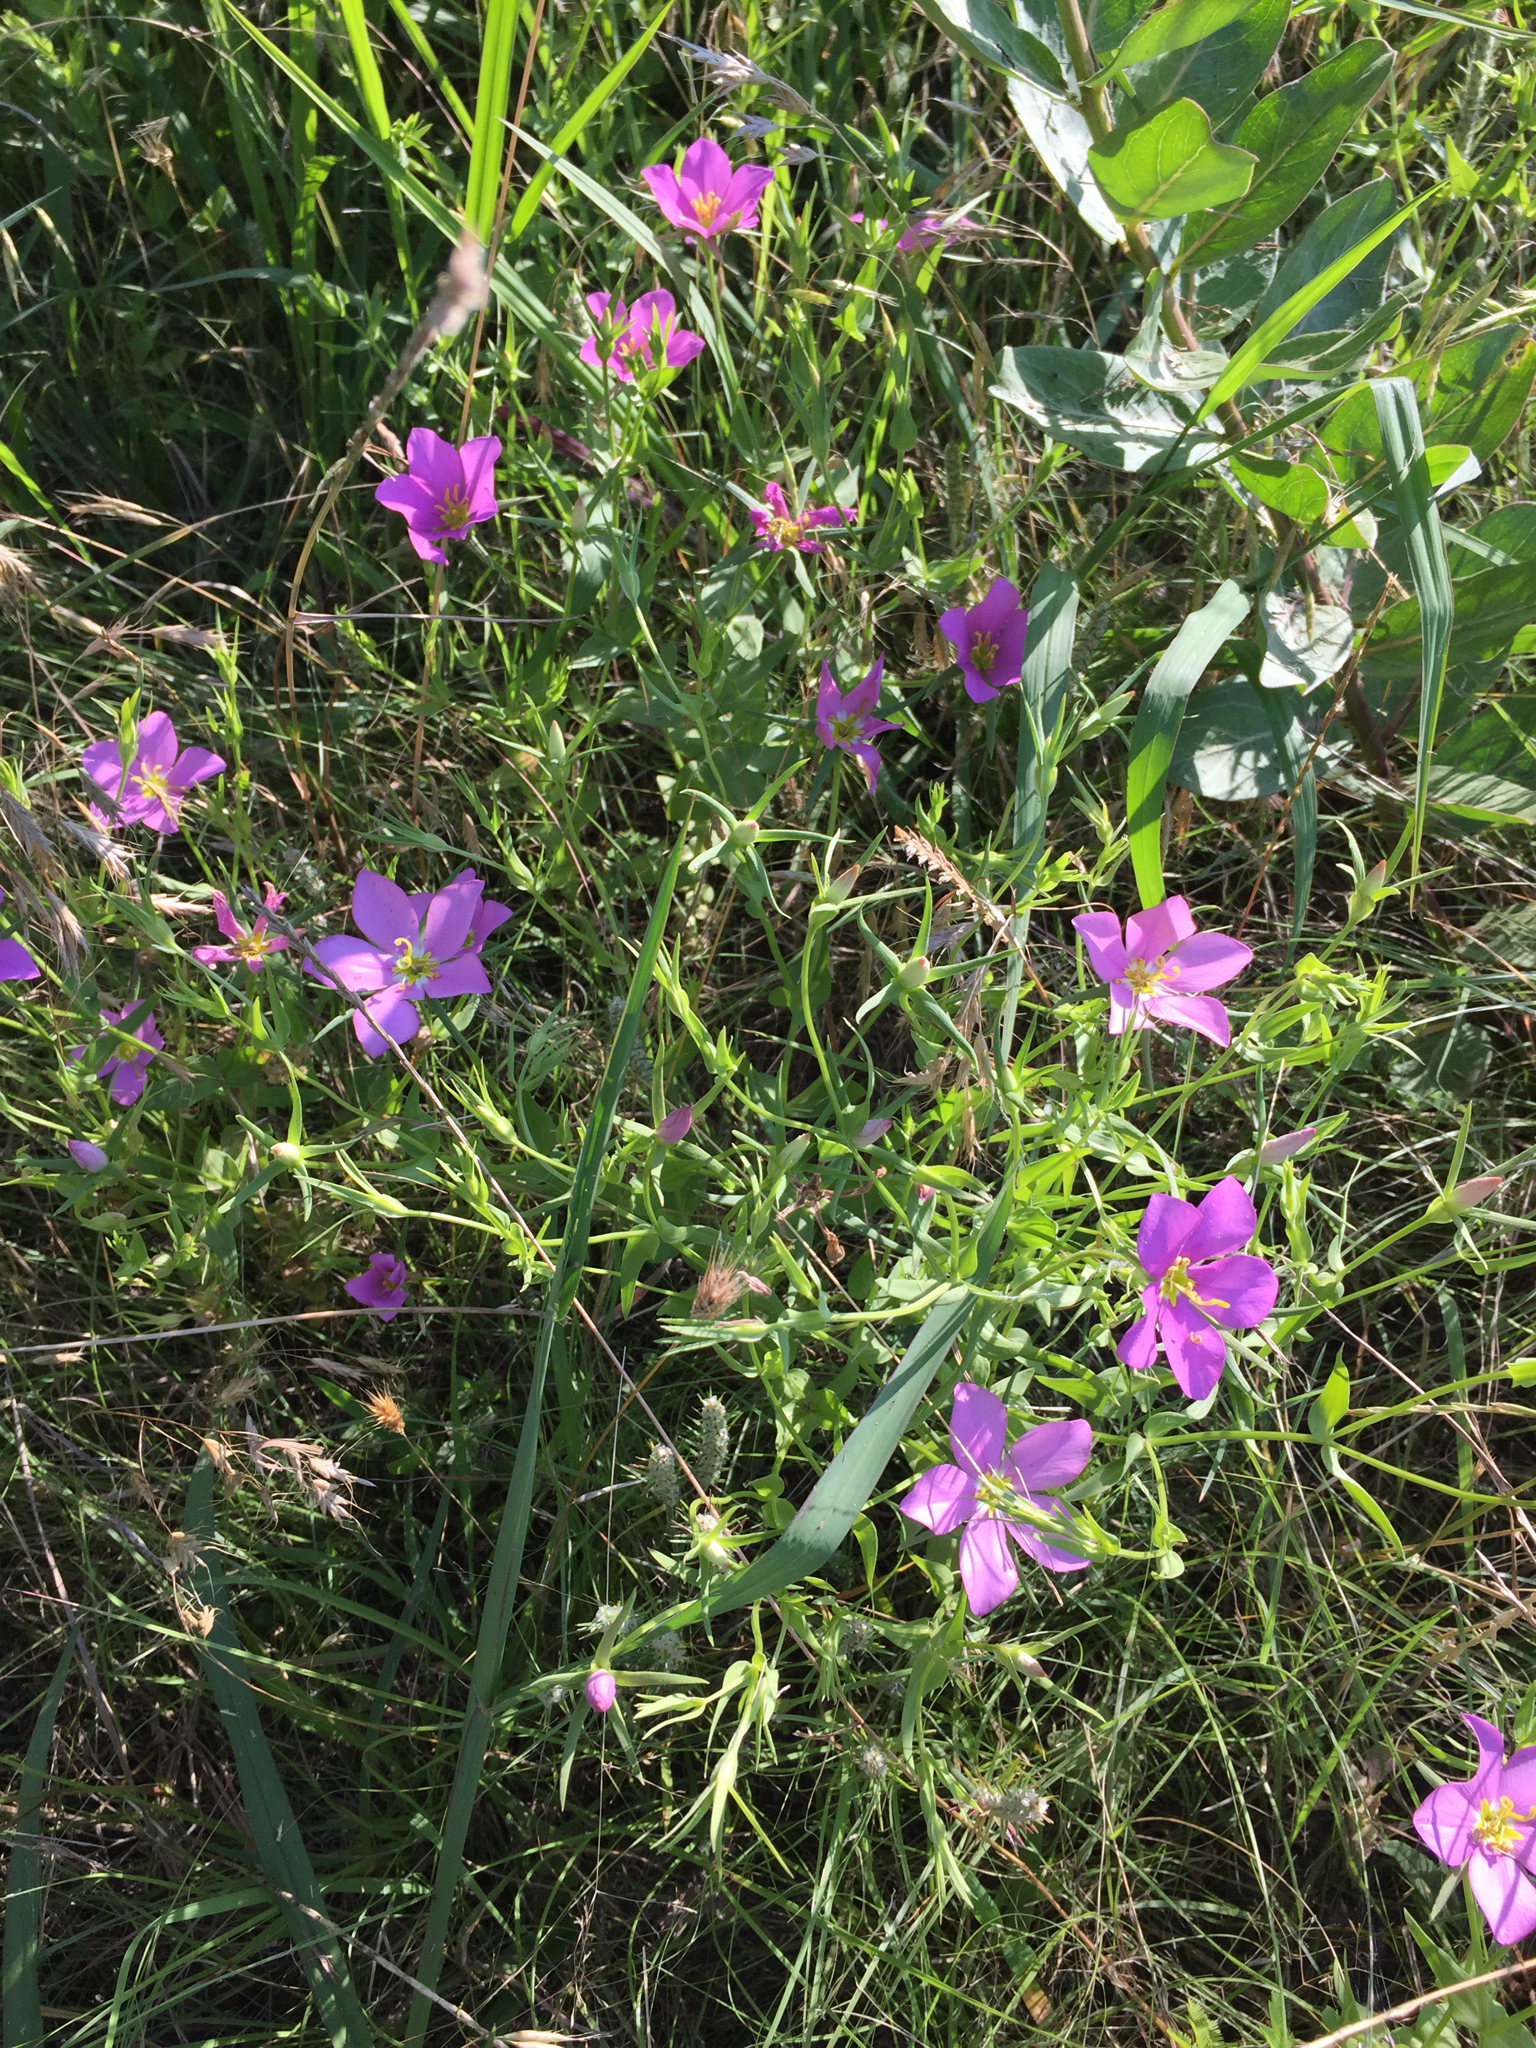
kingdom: Plantae
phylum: Tracheophyta
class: Magnoliopsida
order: Gentianales
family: Gentianaceae
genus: Sabatia
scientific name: Sabatia campestris
